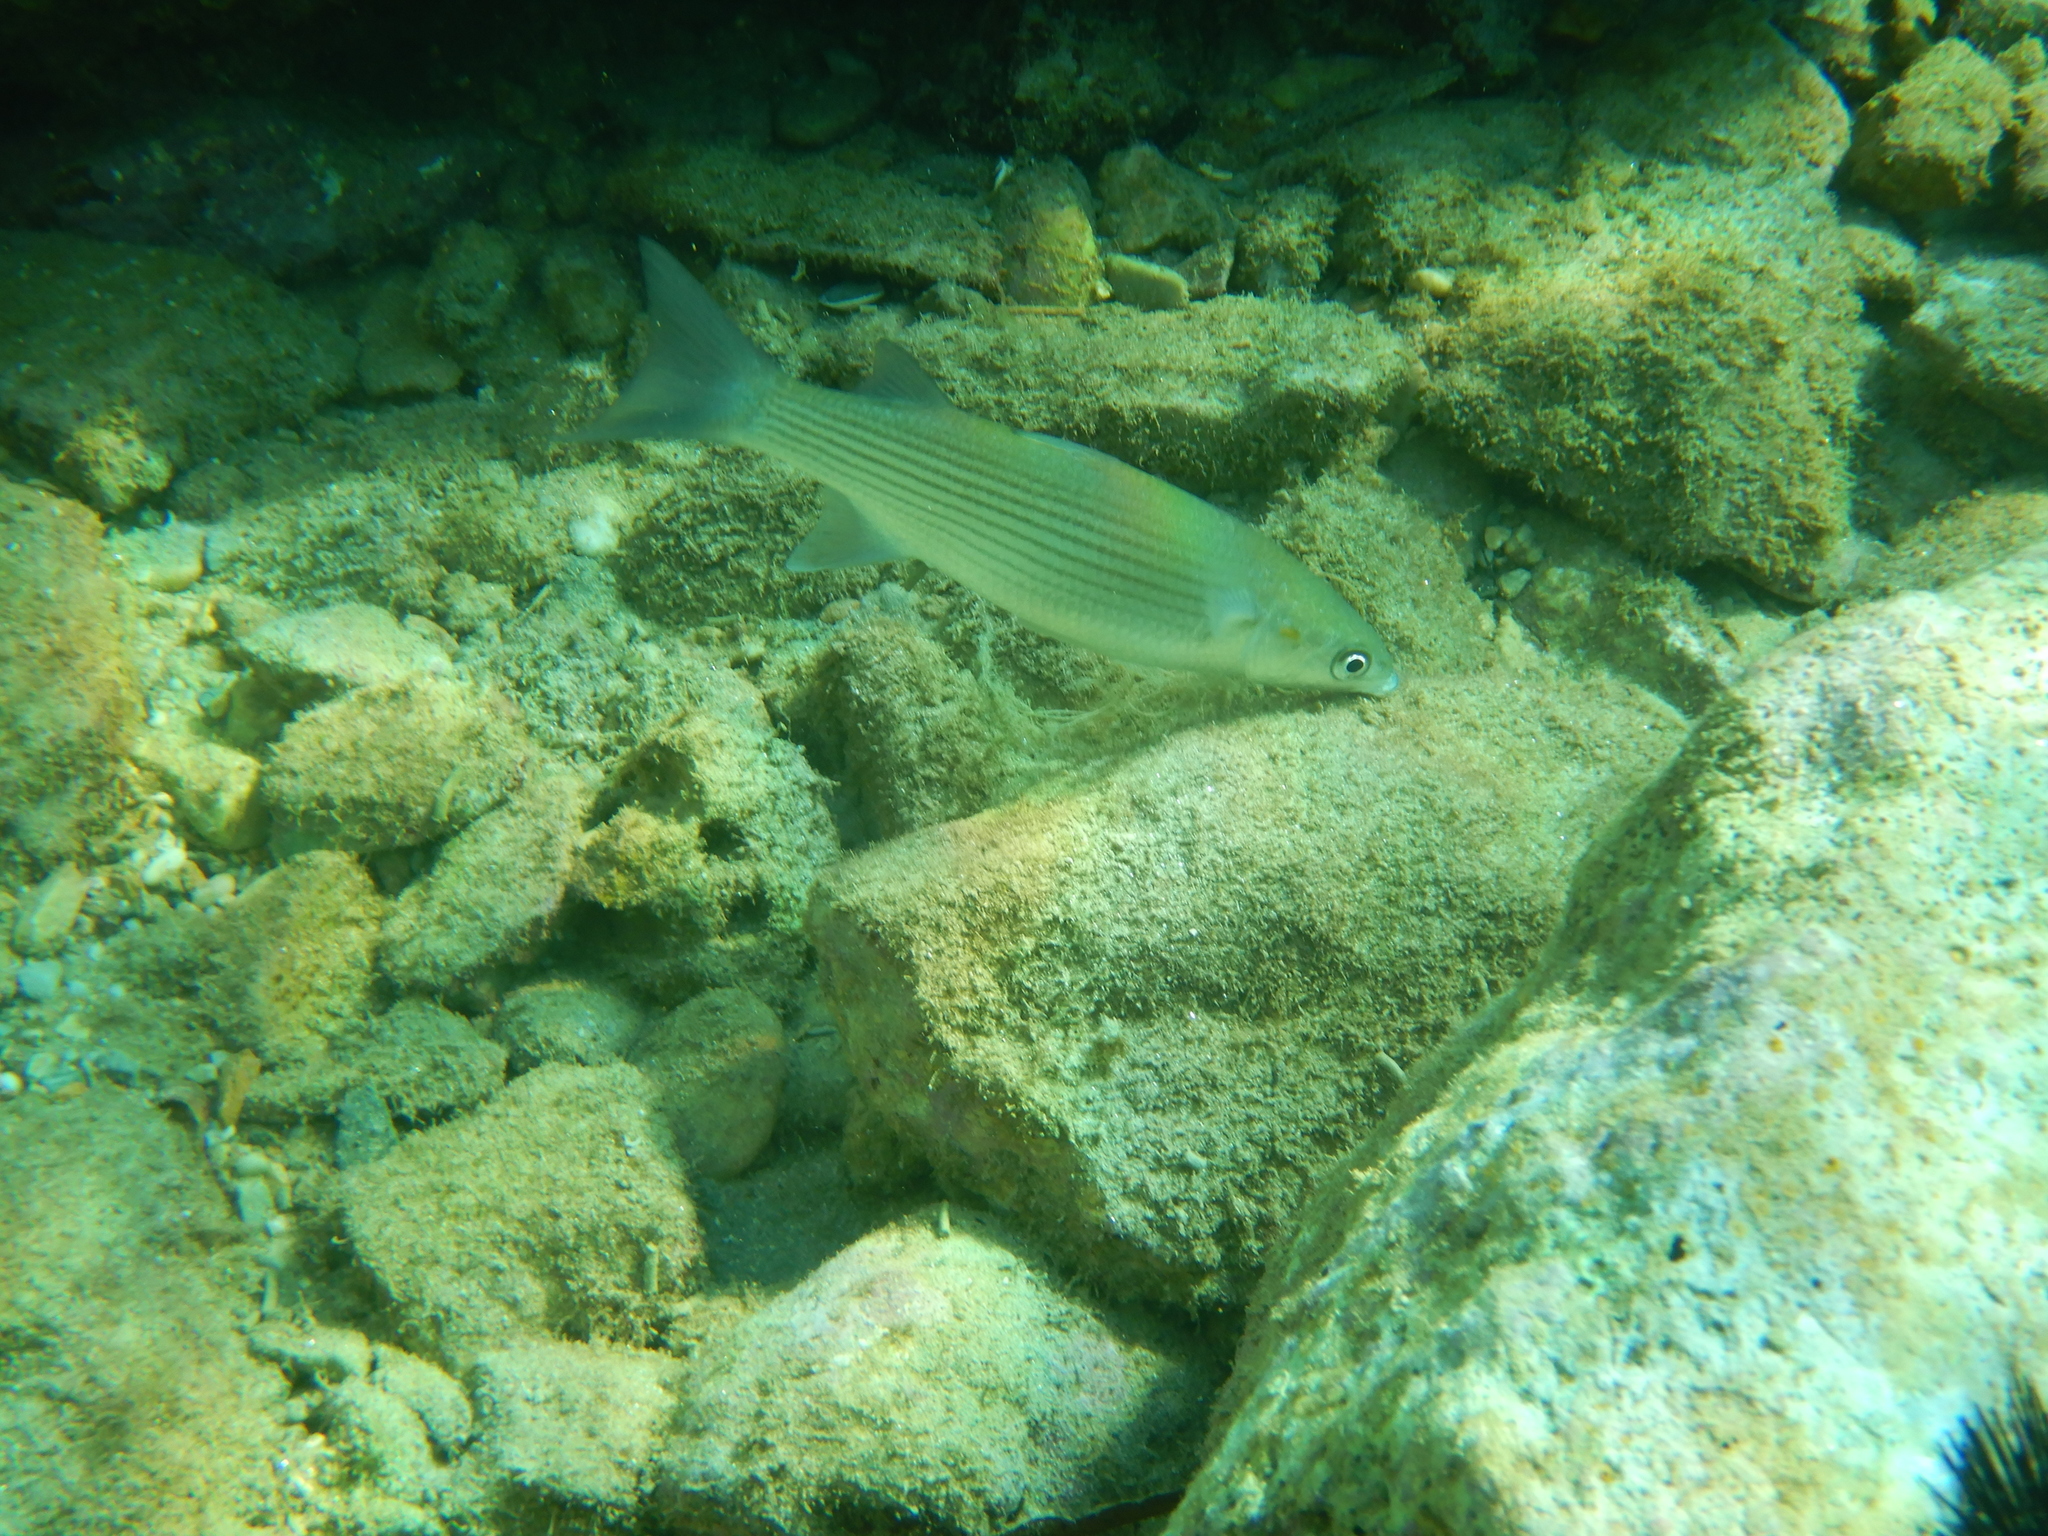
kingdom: Animalia
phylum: Chordata
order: Mugiliformes
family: Mugilidae
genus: Chelon
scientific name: Chelon
